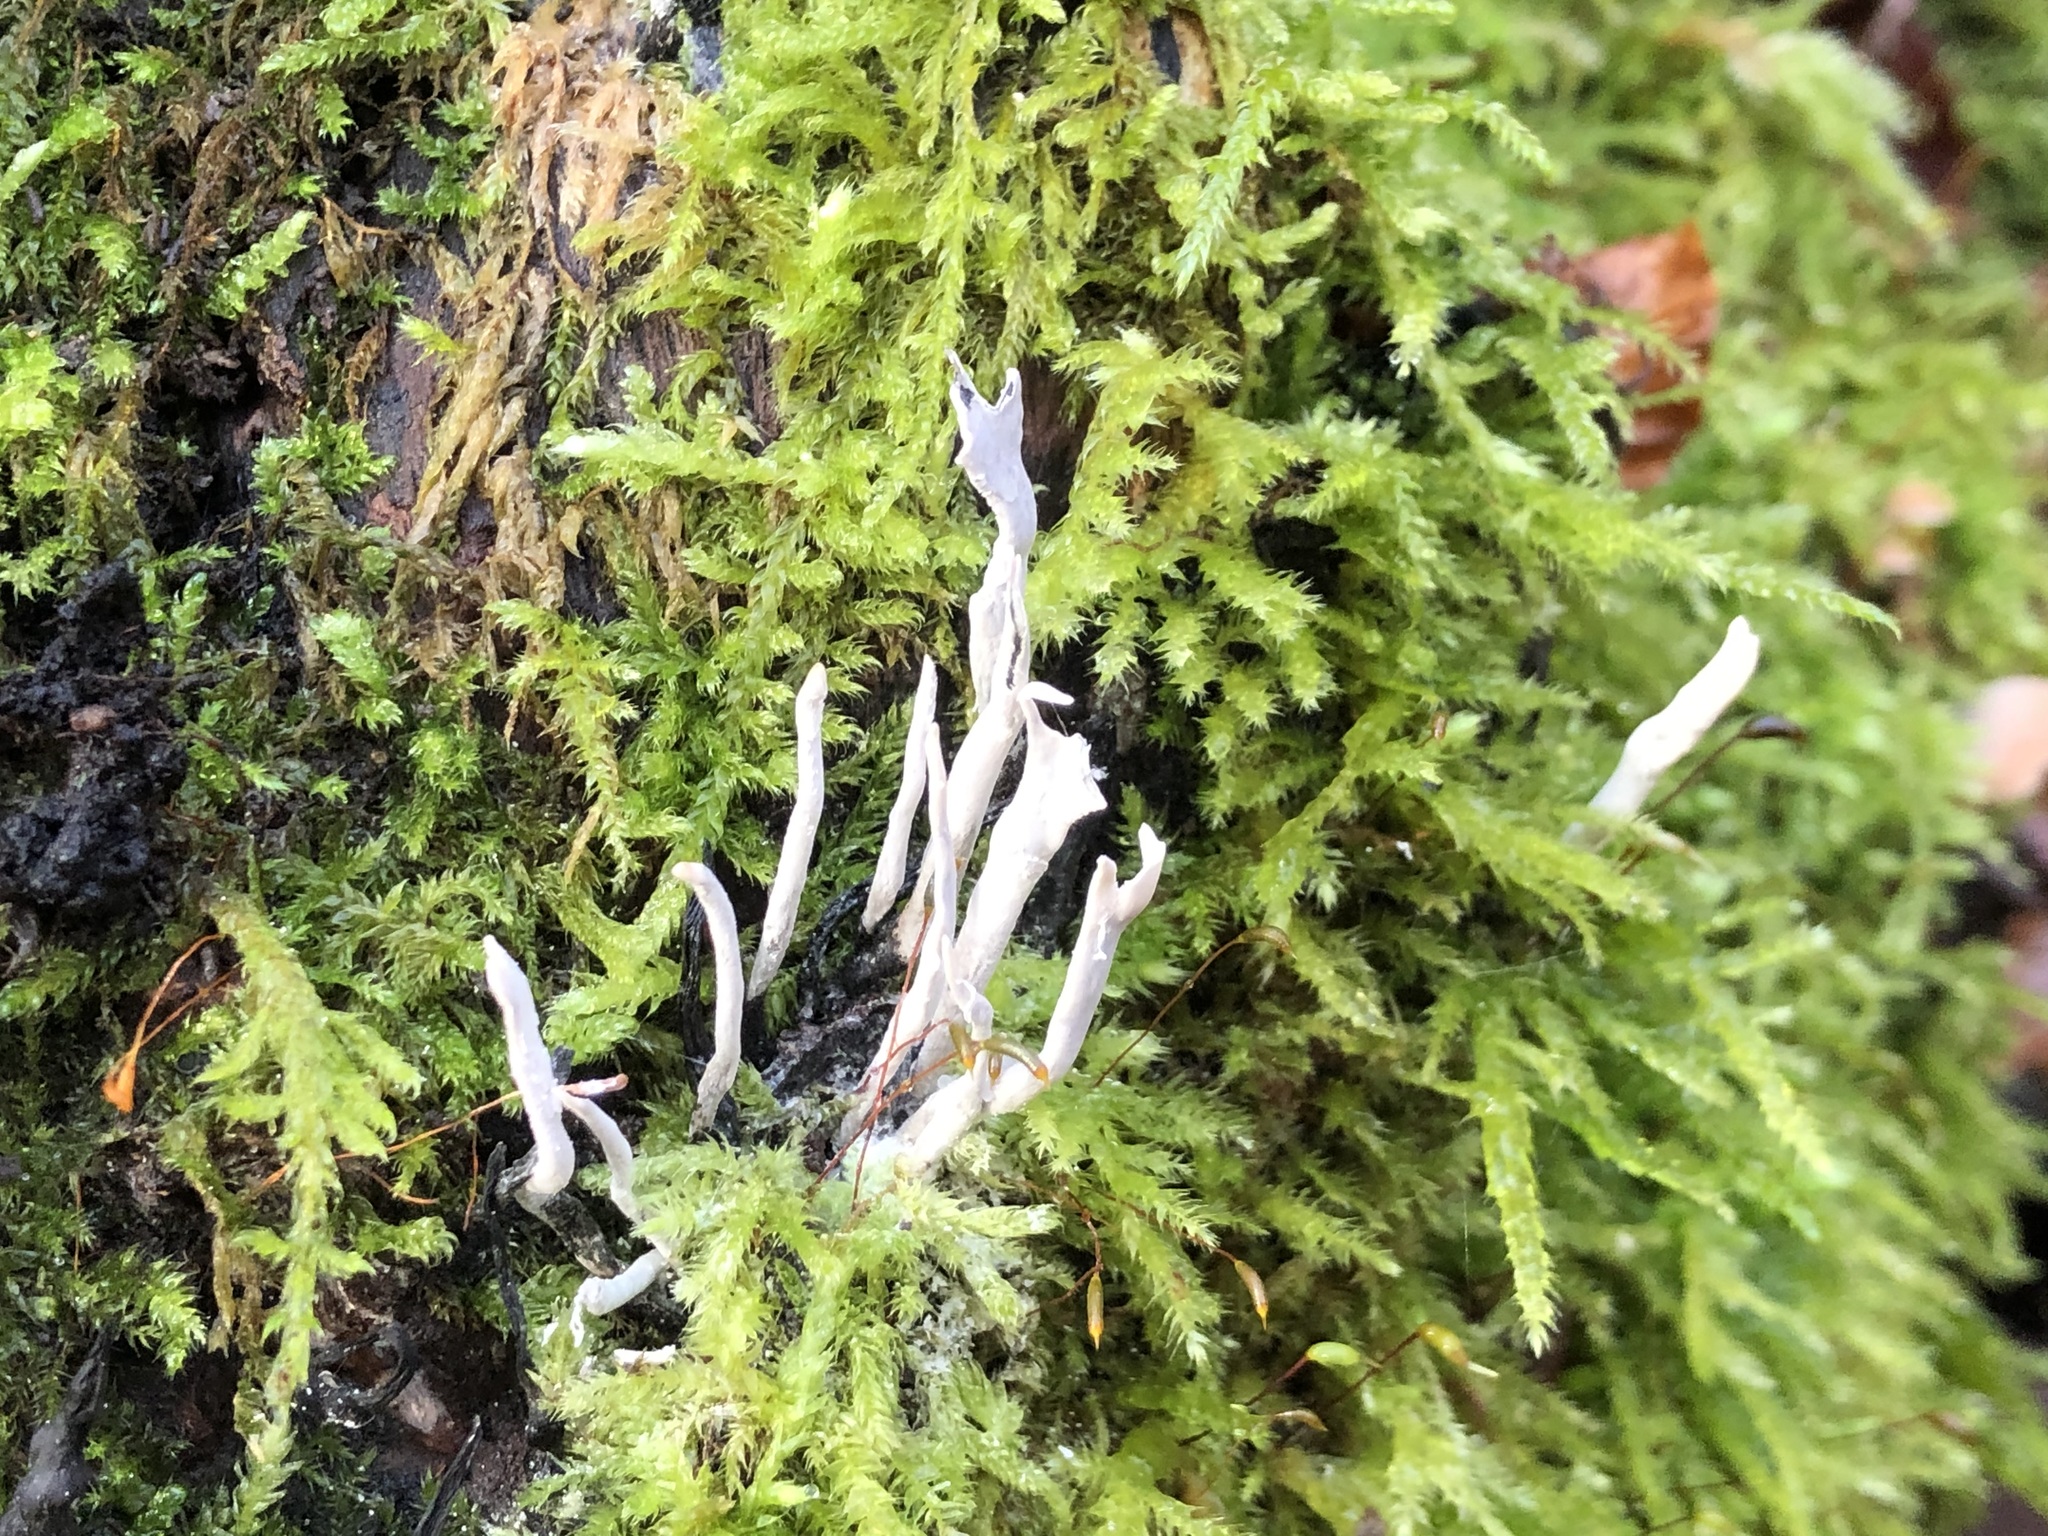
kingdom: Fungi
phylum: Ascomycota
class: Sordariomycetes
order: Xylariales
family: Xylariaceae
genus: Xylaria
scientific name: Xylaria hypoxylon
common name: Candle-snuff fungus
